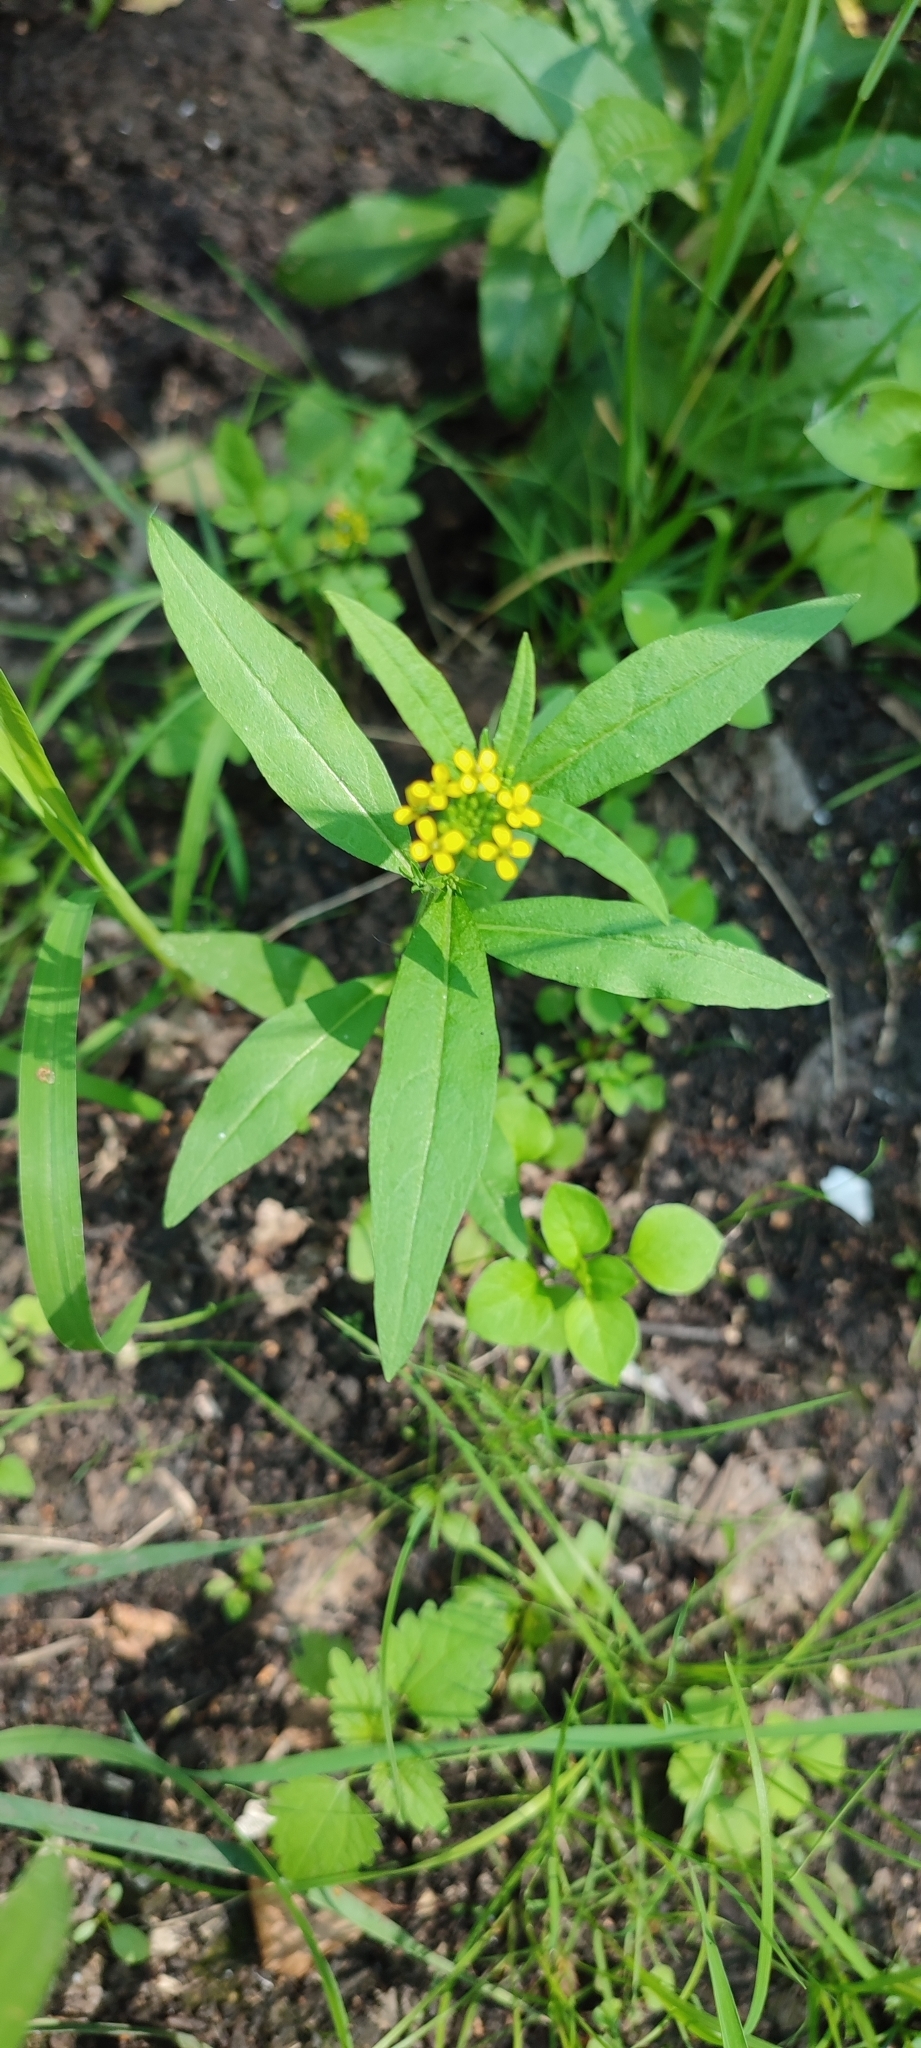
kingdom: Plantae
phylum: Tracheophyta
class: Magnoliopsida
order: Brassicales
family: Brassicaceae
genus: Erysimum
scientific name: Erysimum cheiranthoides
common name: Treacle mustard
